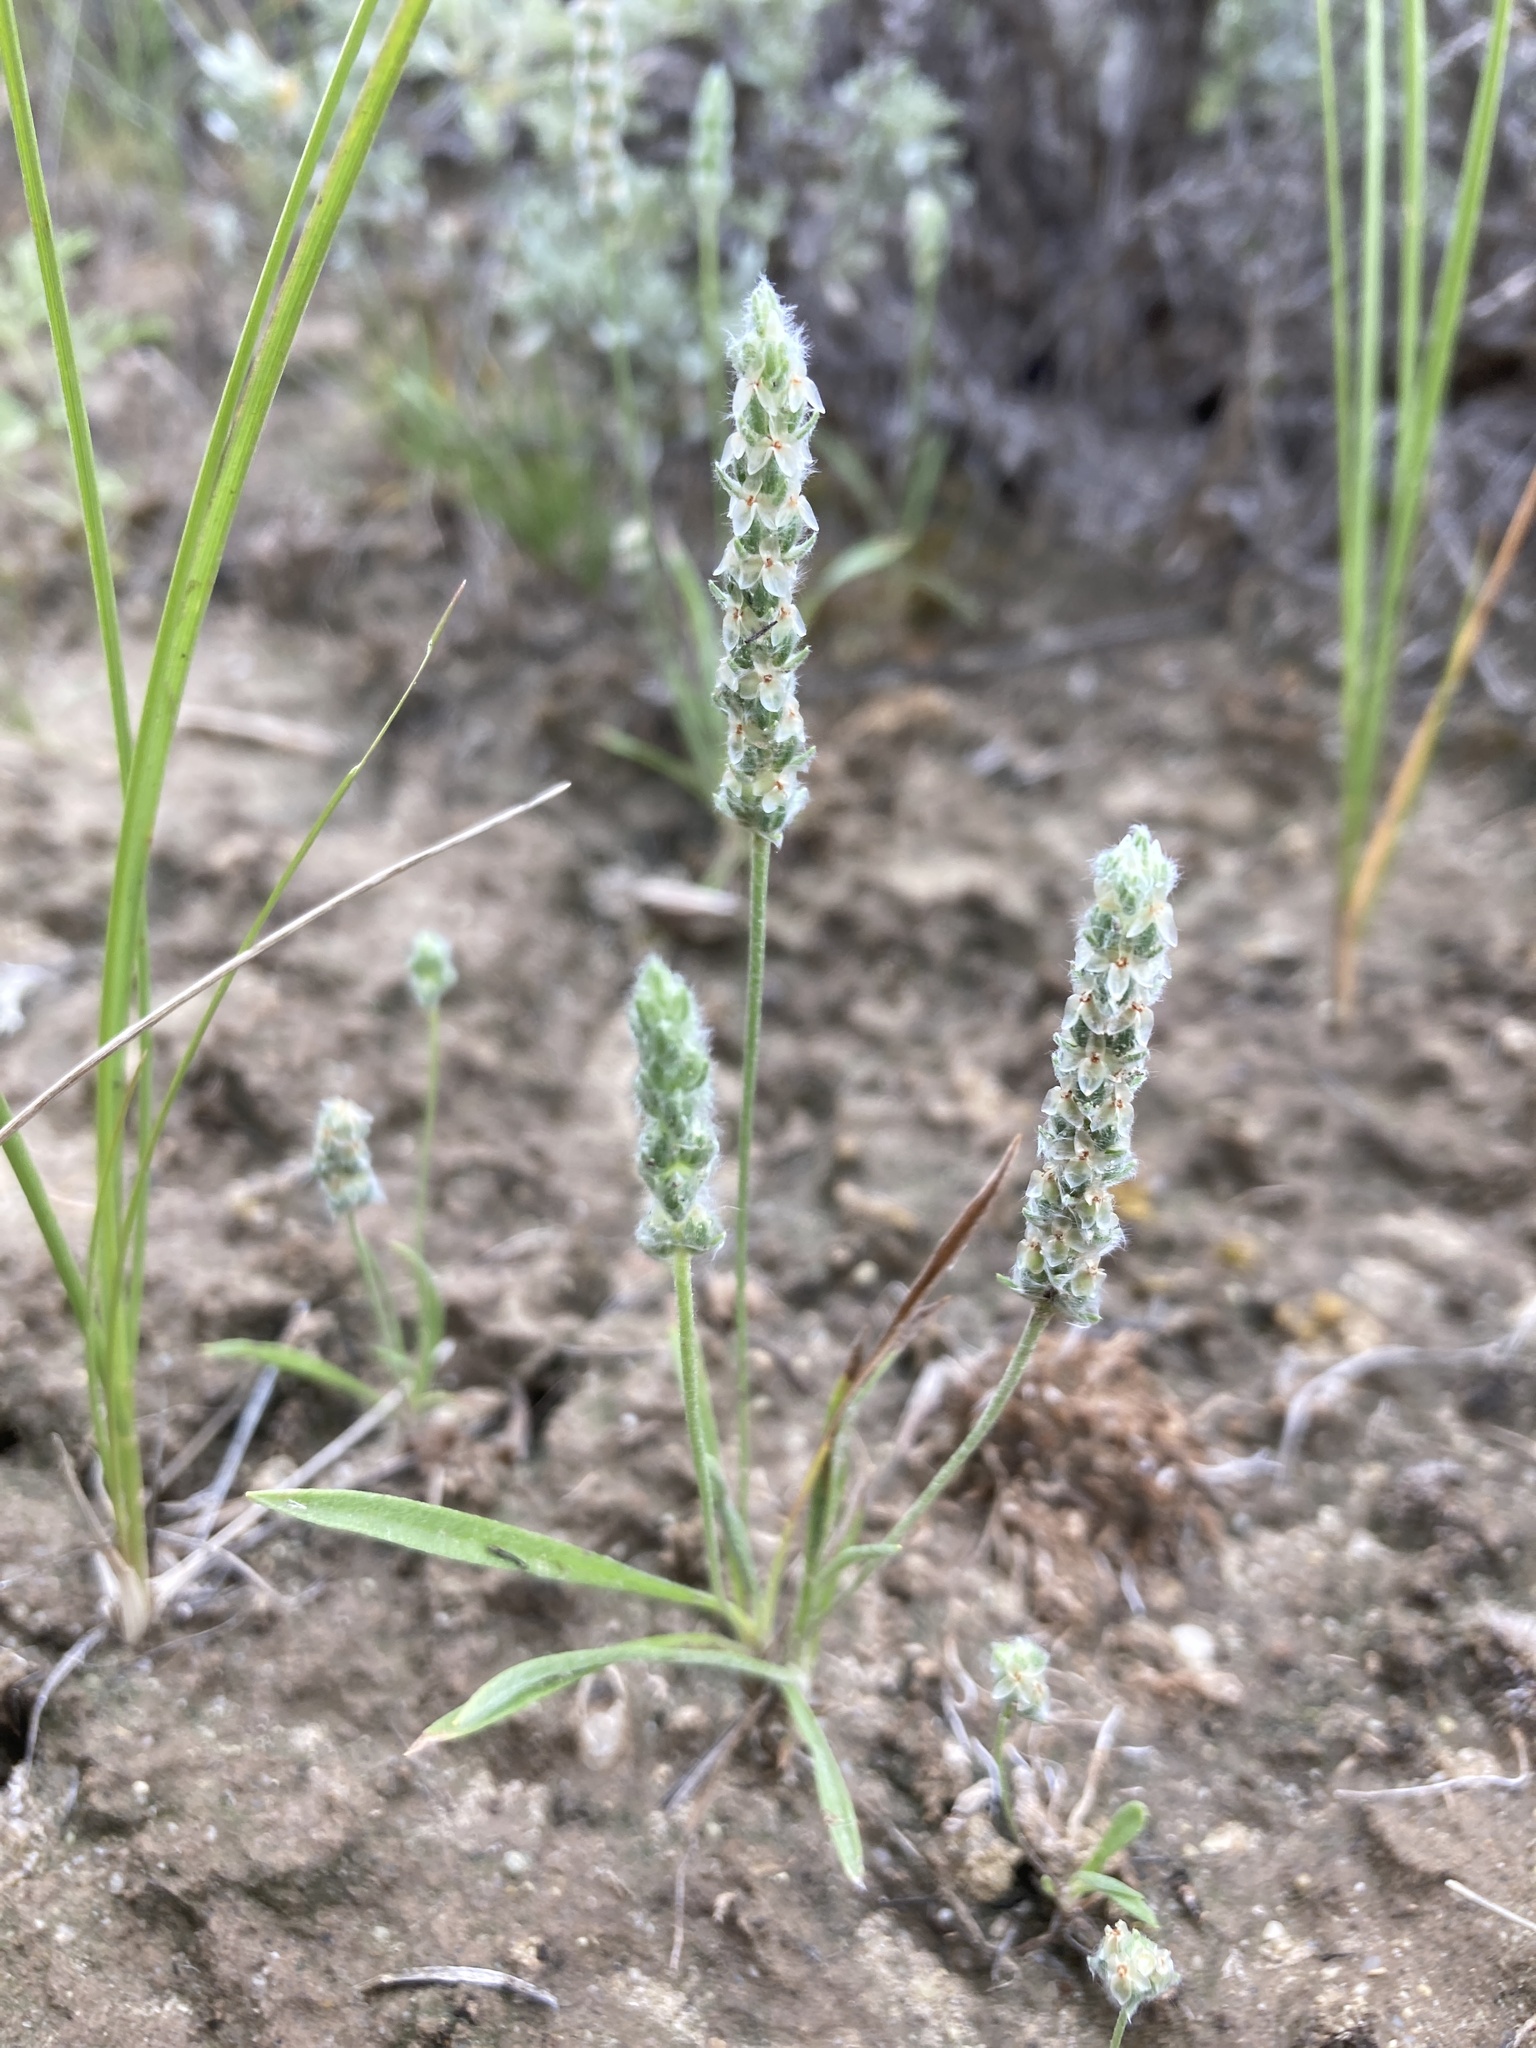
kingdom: Plantae
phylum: Tracheophyta
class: Magnoliopsida
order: Lamiales
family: Plantaginaceae
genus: Plantago
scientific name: Plantago patagonica
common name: Patagonia indian-wheat
